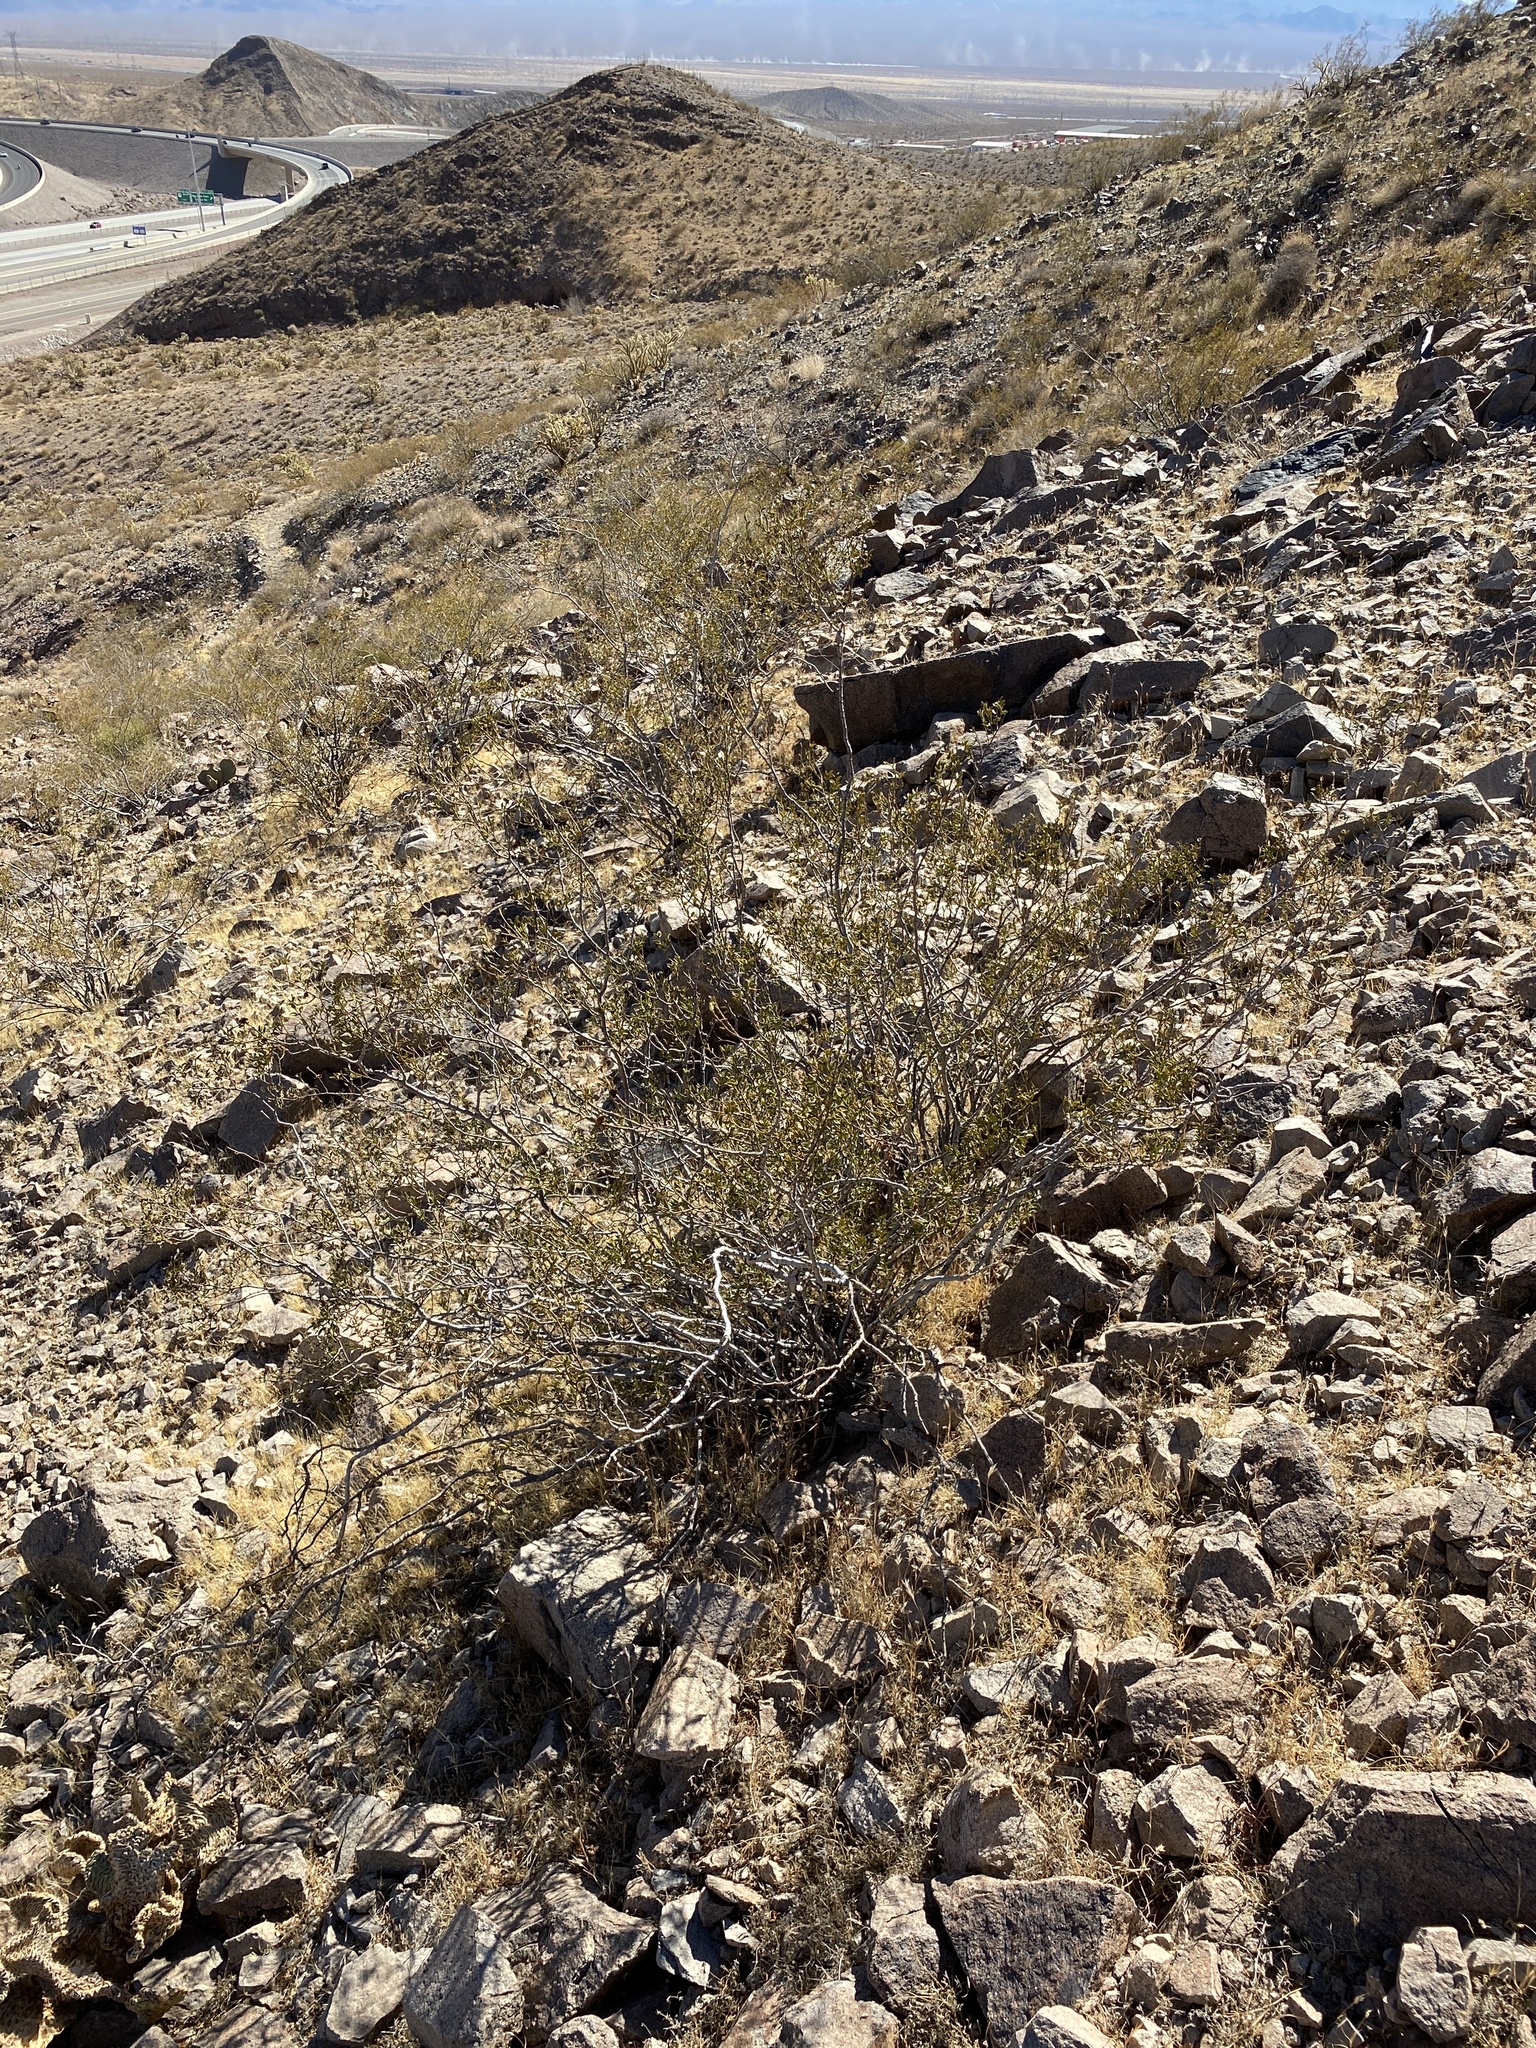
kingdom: Plantae
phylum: Tracheophyta
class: Magnoliopsida
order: Zygophyllales
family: Zygophyllaceae
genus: Larrea
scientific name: Larrea tridentata
